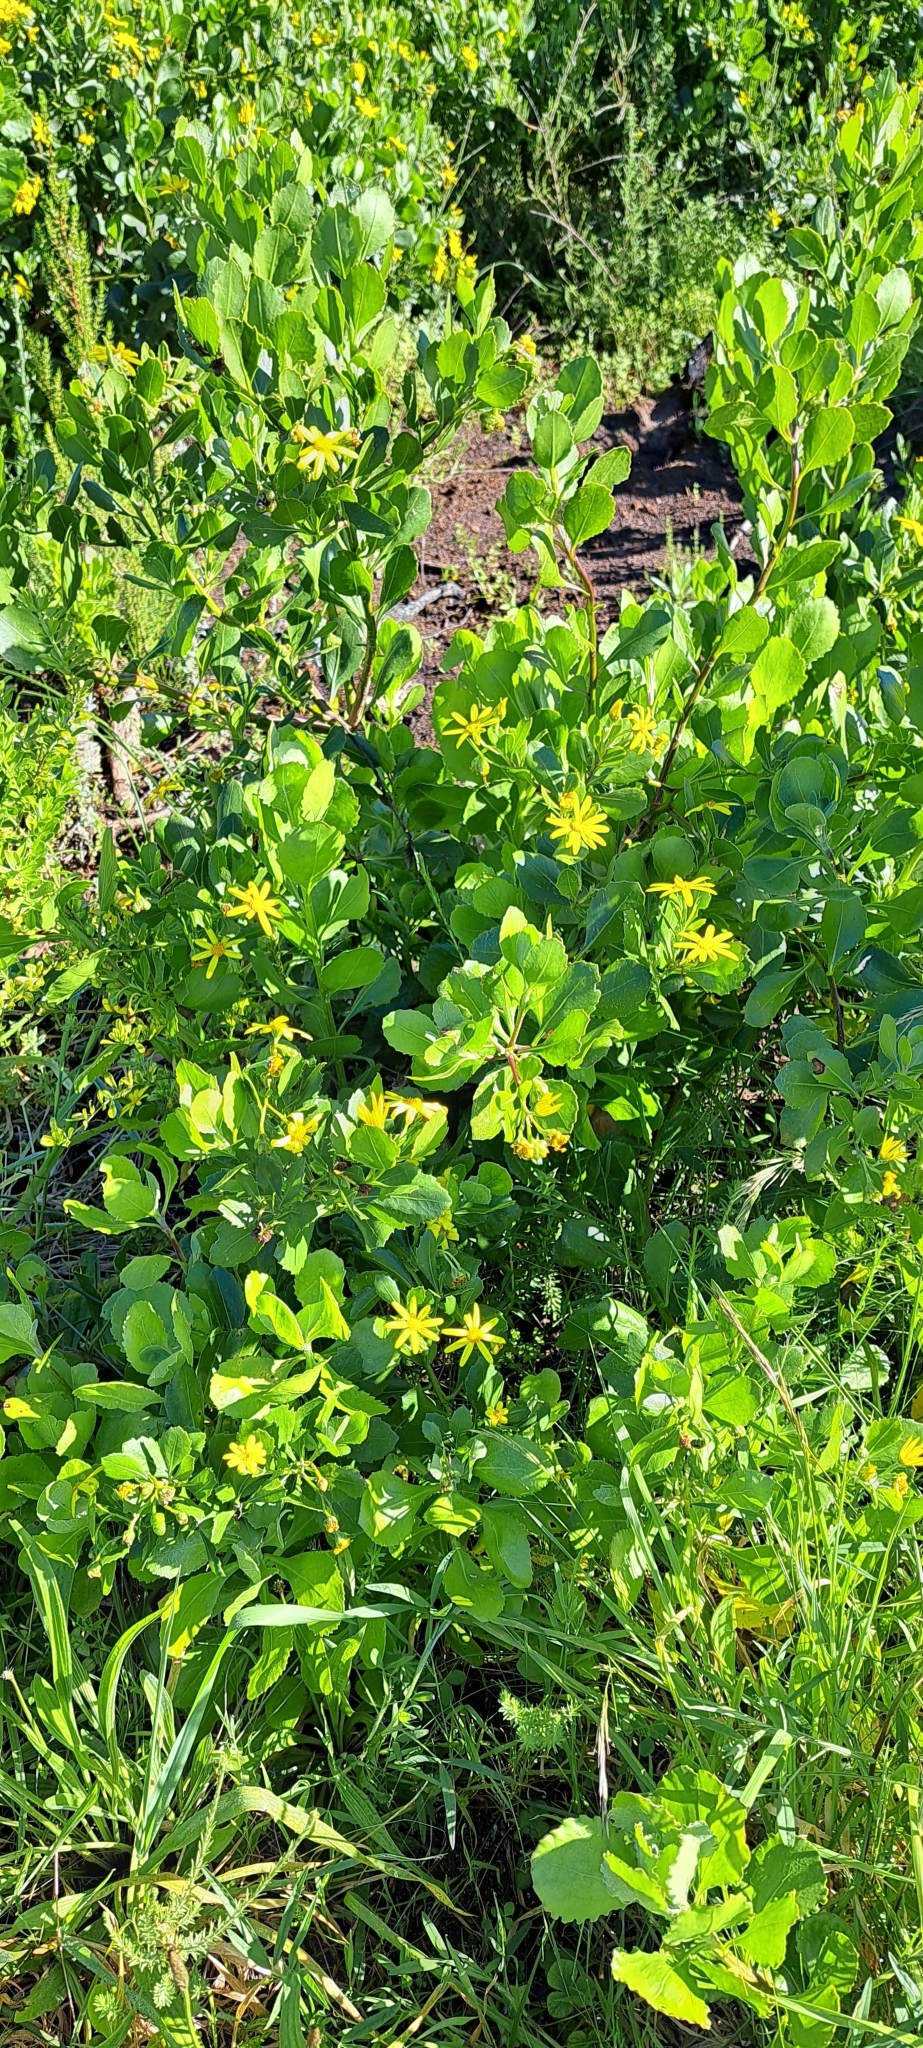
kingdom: Plantae
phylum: Tracheophyta
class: Magnoliopsida
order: Asterales
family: Asteraceae
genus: Osteospermum
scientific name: Osteospermum moniliferum
